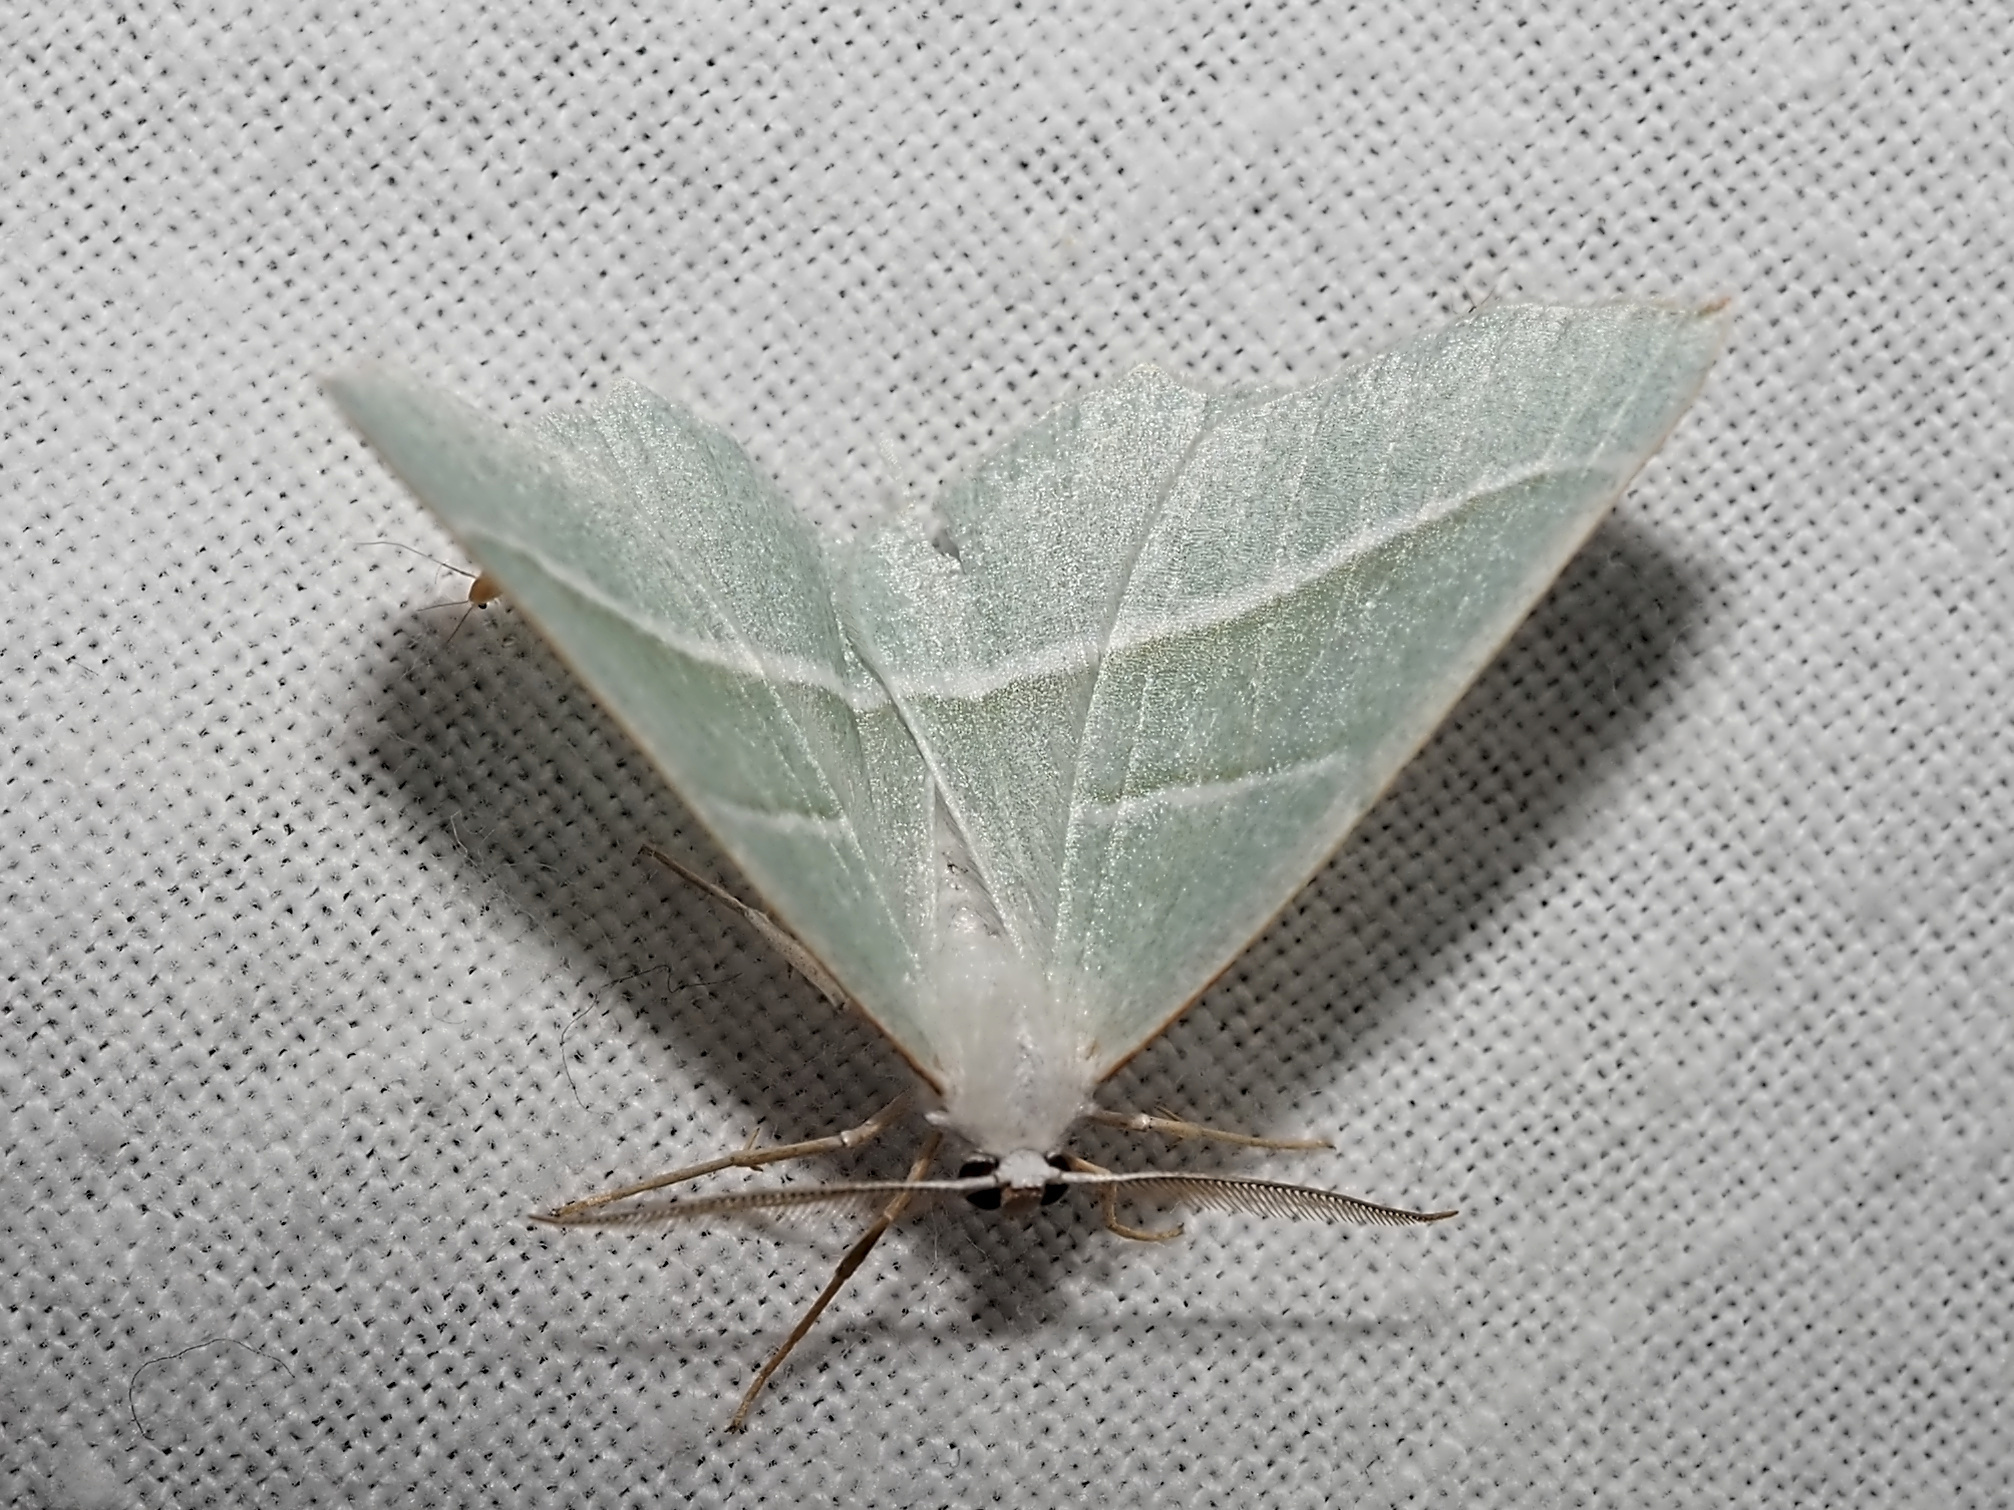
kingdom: Animalia
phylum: Arthropoda
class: Insecta
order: Lepidoptera
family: Geometridae
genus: Campaea
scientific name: Campaea margaritaria
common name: Light emerald
